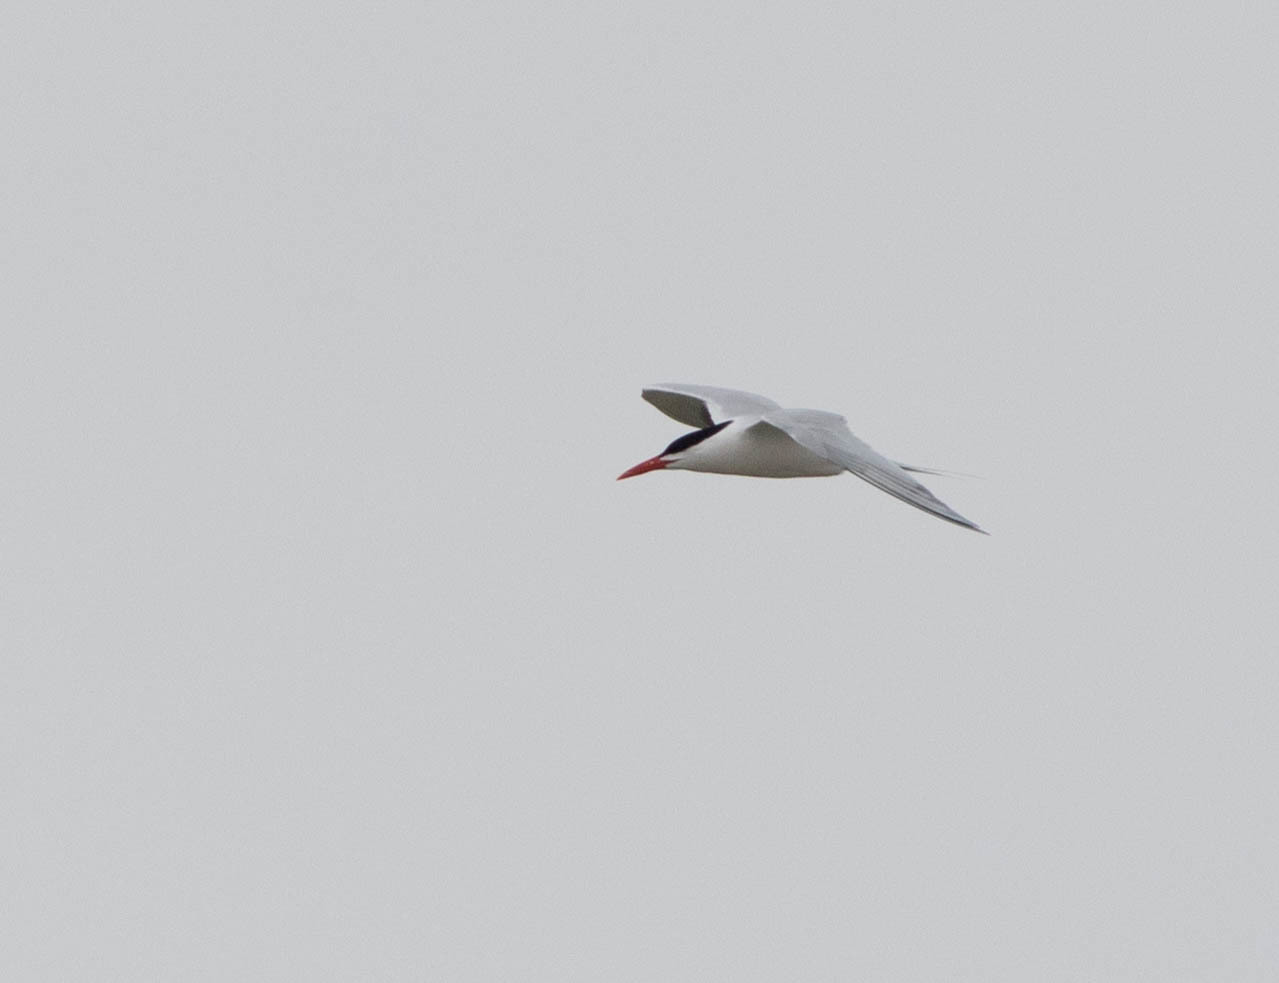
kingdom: Animalia
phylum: Chordata
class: Aves
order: Charadriiformes
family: Laridae
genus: Hydroprogne
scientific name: Hydroprogne caspia
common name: Caspian tern
